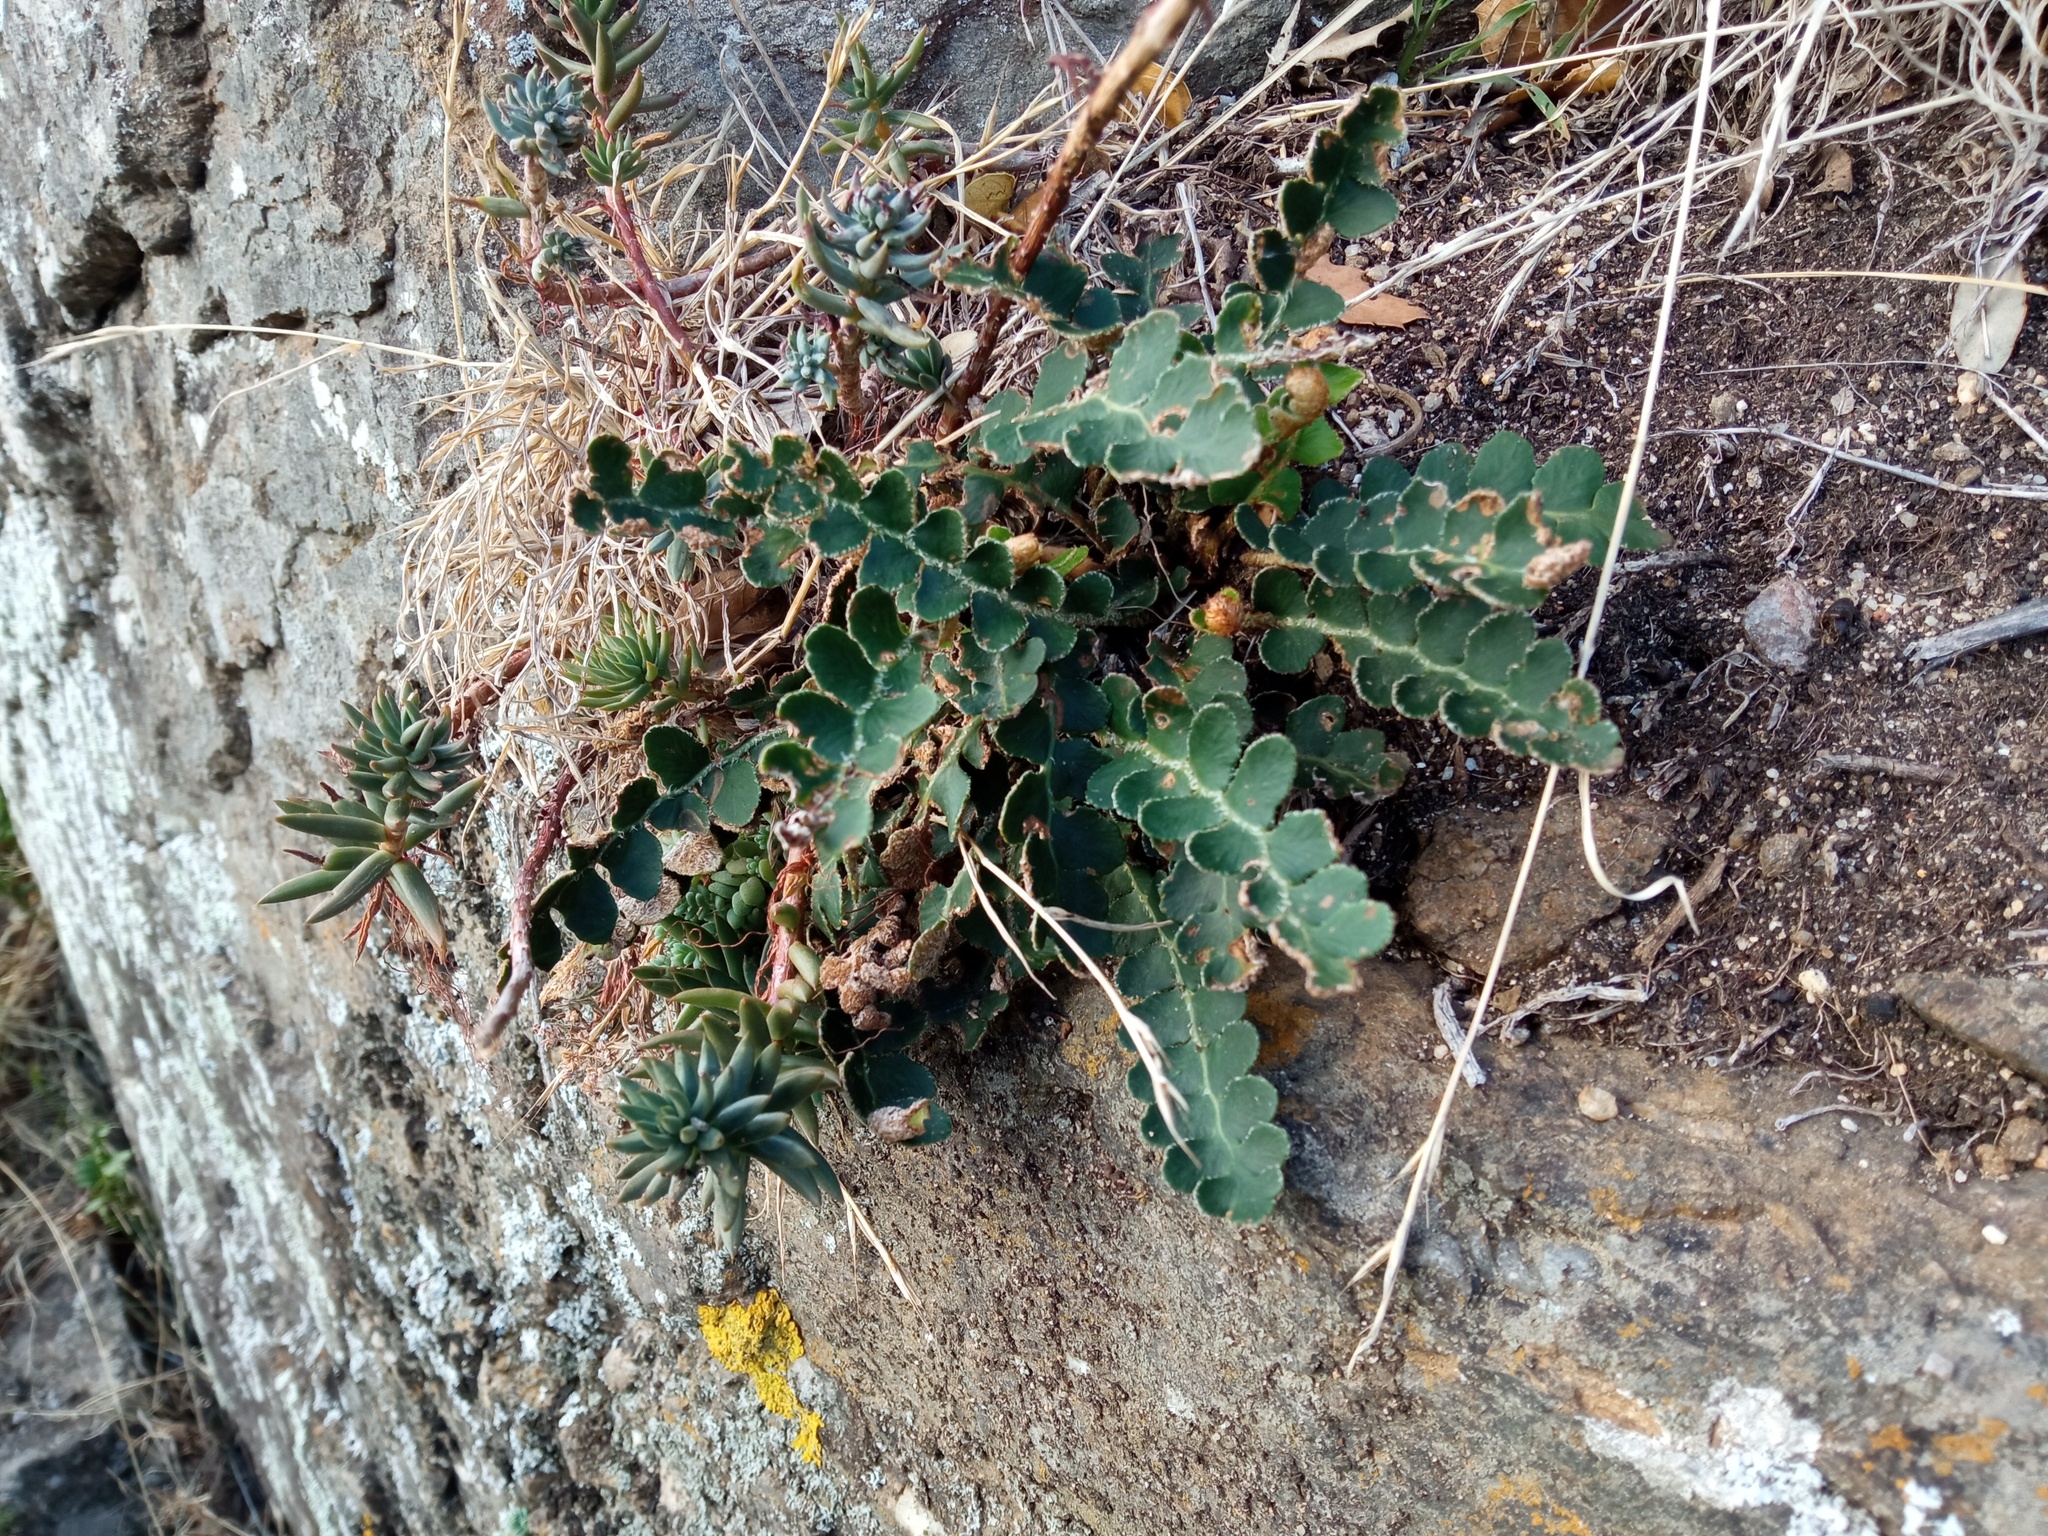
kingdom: Plantae
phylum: Tracheophyta
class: Polypodiopsida
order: Polypodiales
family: Aspleniaceae
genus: Asplenium
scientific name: Asplenium ceterach
